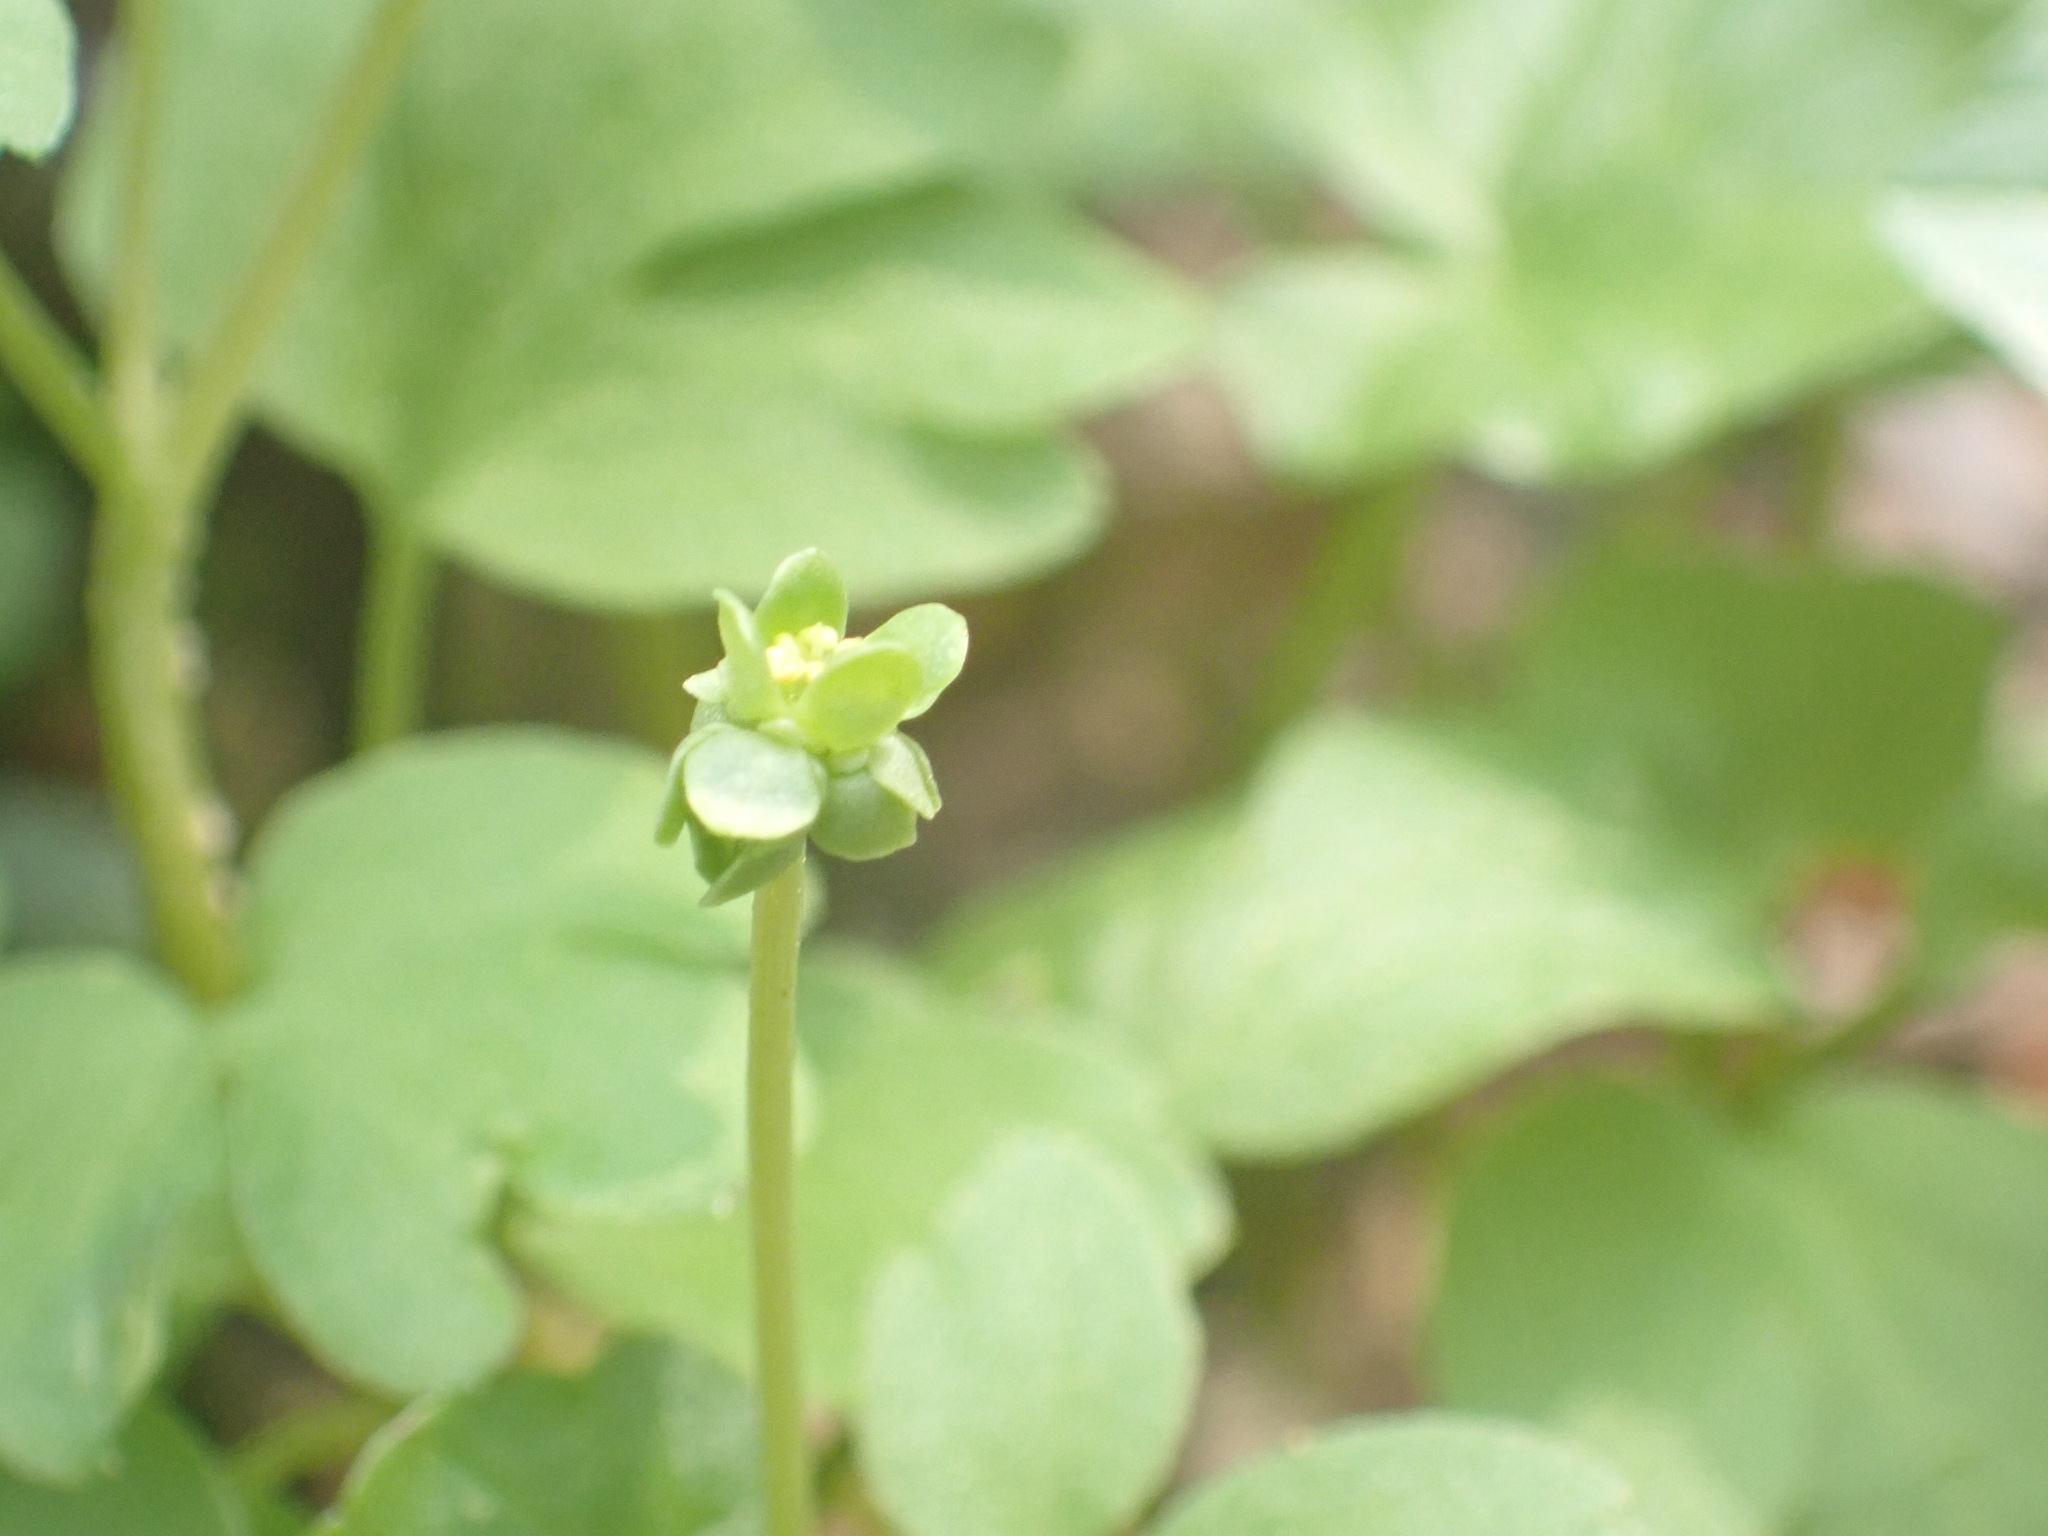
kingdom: Plantae
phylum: Tracheophyta
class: Magnoliopsida
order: Dipsacales
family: Viburnaceae
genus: Adoxa
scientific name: Adoxa moschatellina
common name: Moschatel
